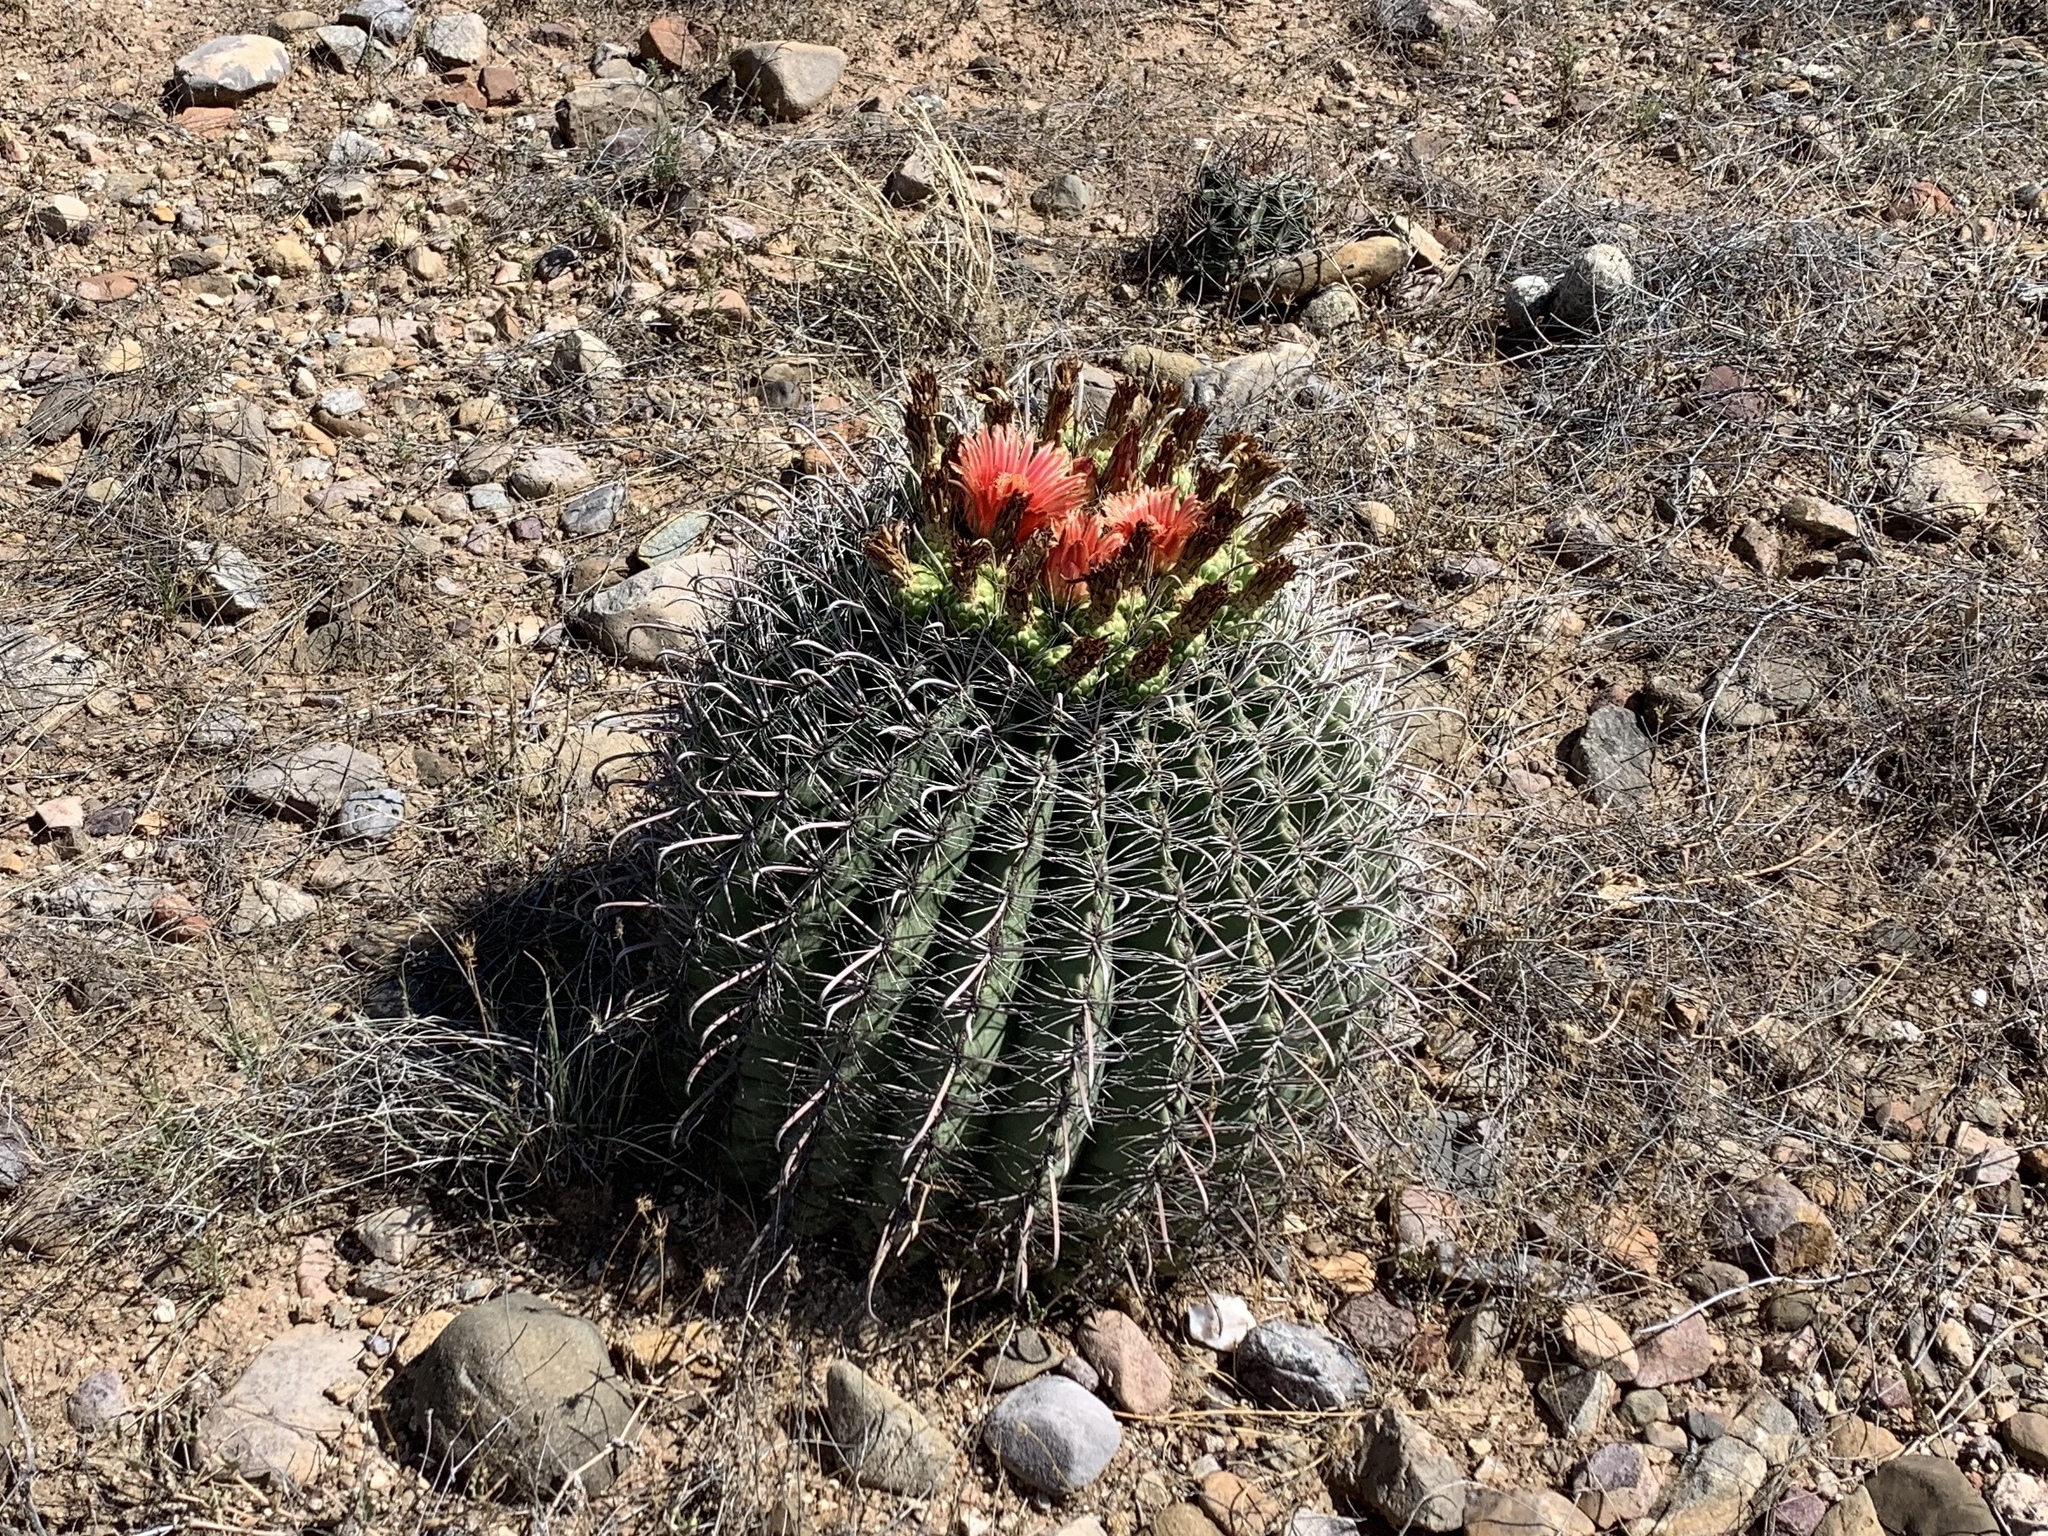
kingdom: Plantae
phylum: Tracheophyta
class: Magnoliopsida
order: Caryophyllales
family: Cactaceae
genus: Ferocactus
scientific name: Ferocactus wislizeni
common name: Candy barrel cactus
